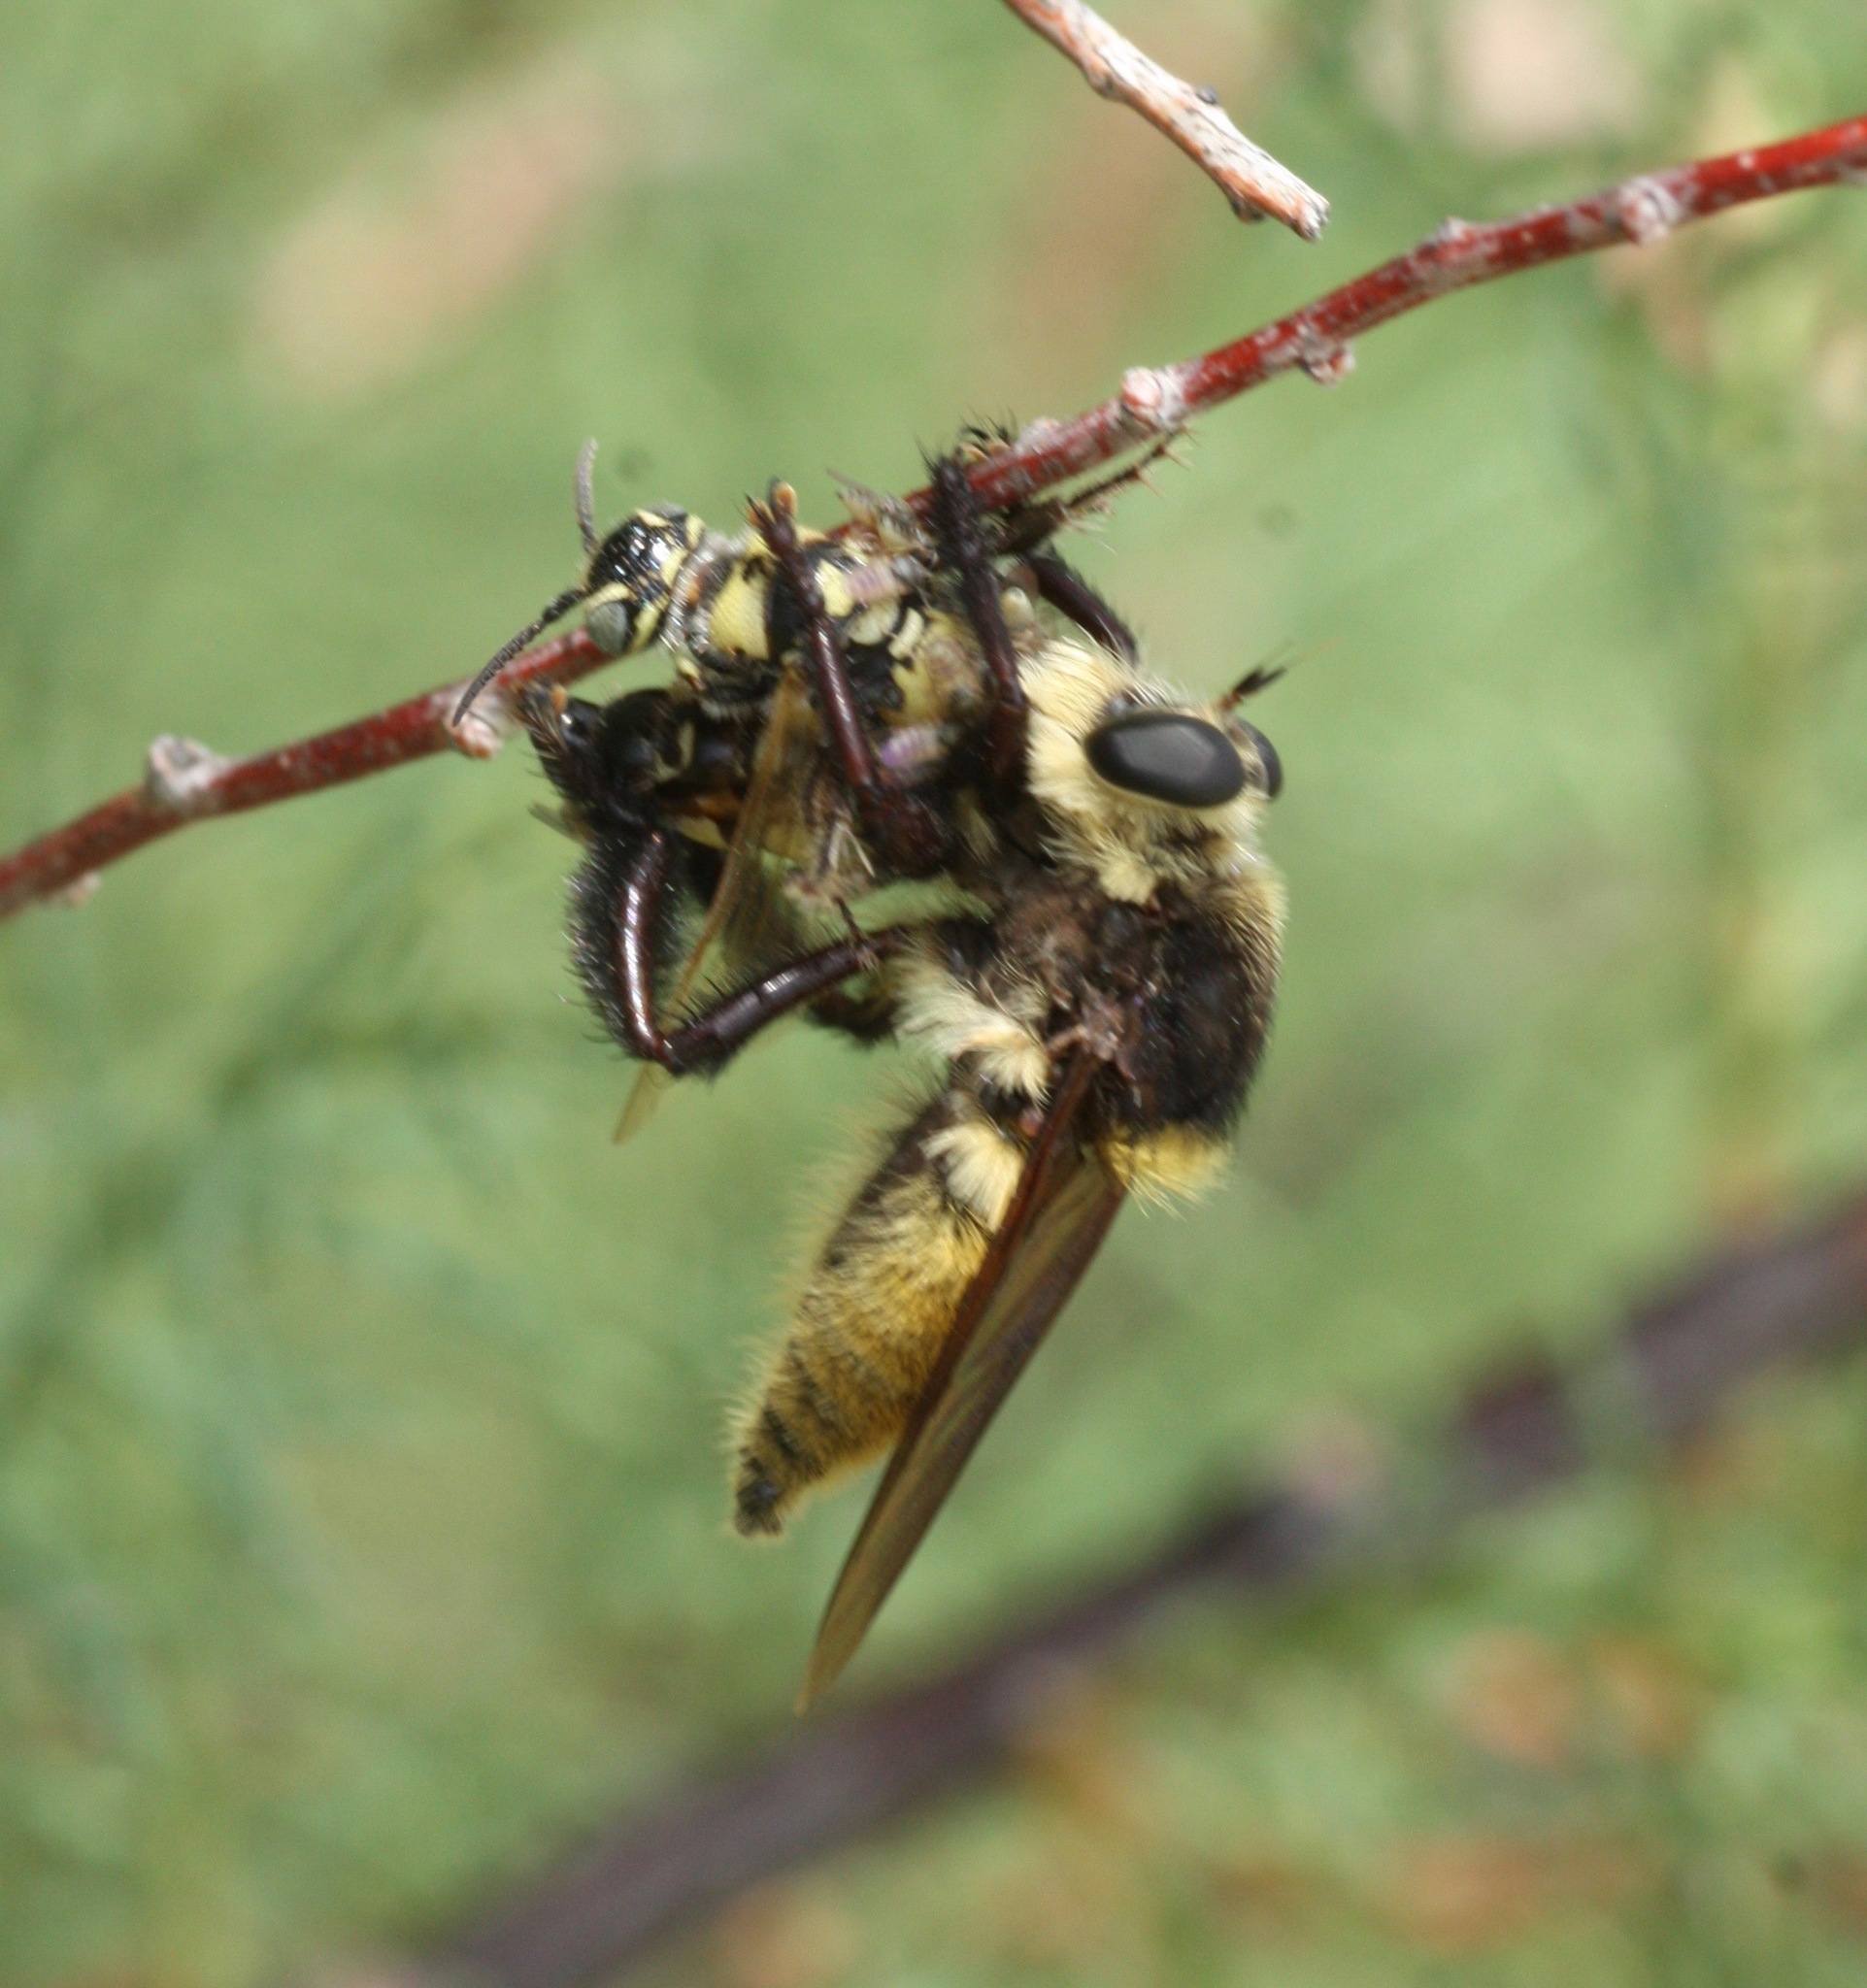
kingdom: Animalia
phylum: Arthropoda
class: Insecta
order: Diptera
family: Asilidae
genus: Mallophora
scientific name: Mallophora fautrix
